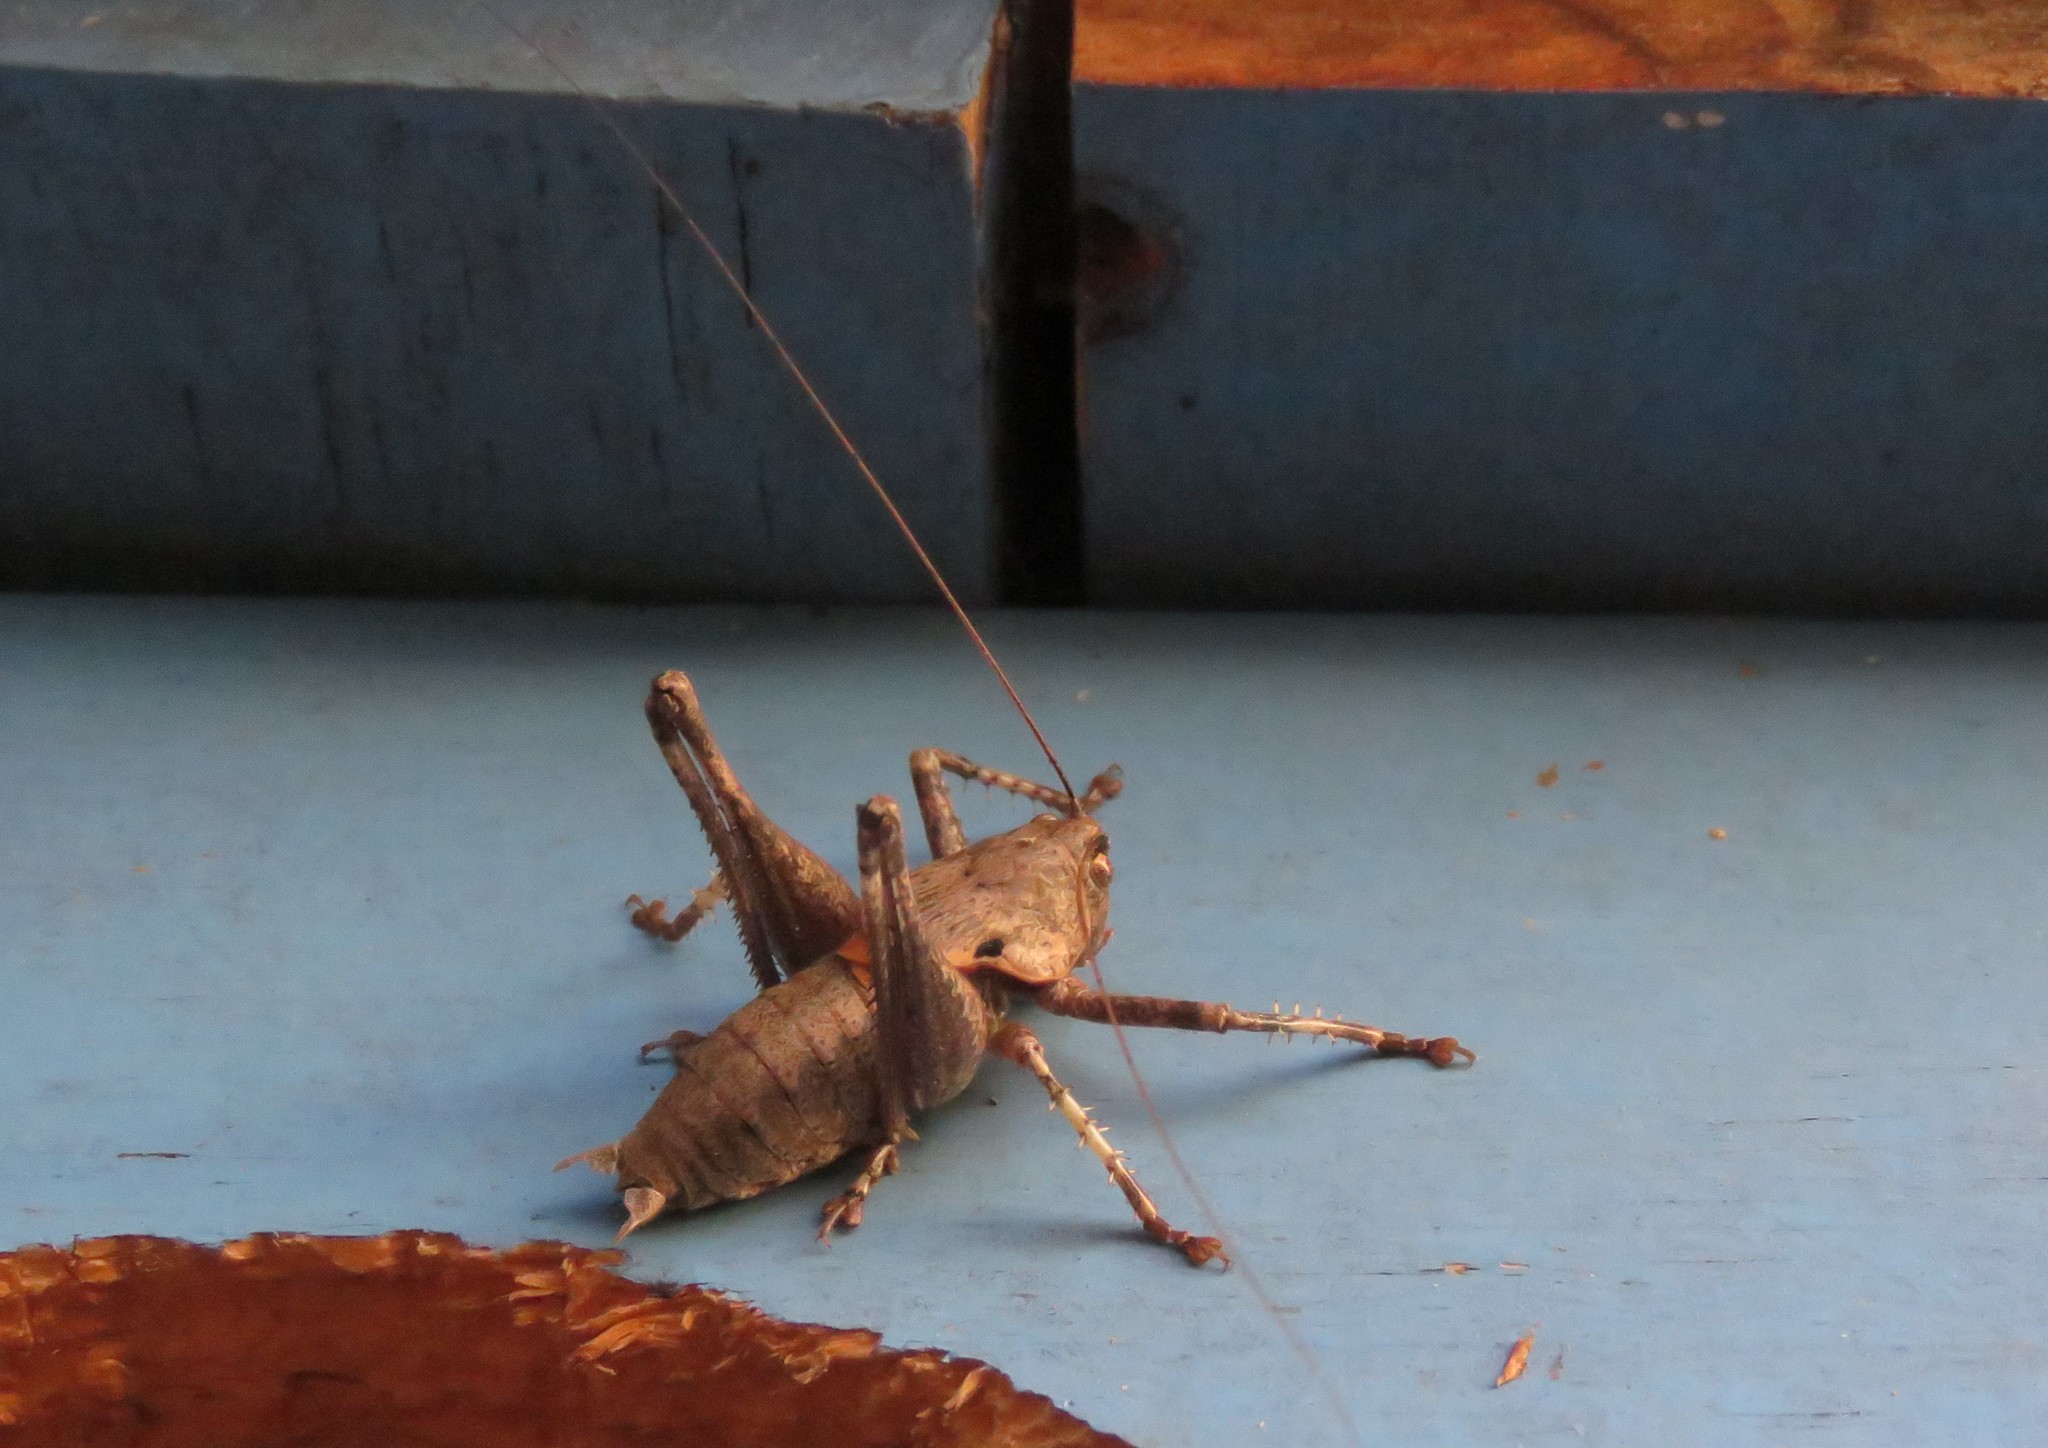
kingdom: Animalia
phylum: Arthropoda
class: Insecta
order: Orthoptera
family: Tettigoniidae
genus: Thyreonotus
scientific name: Thyreonotus bidens
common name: Two-toothed bush-cricket
